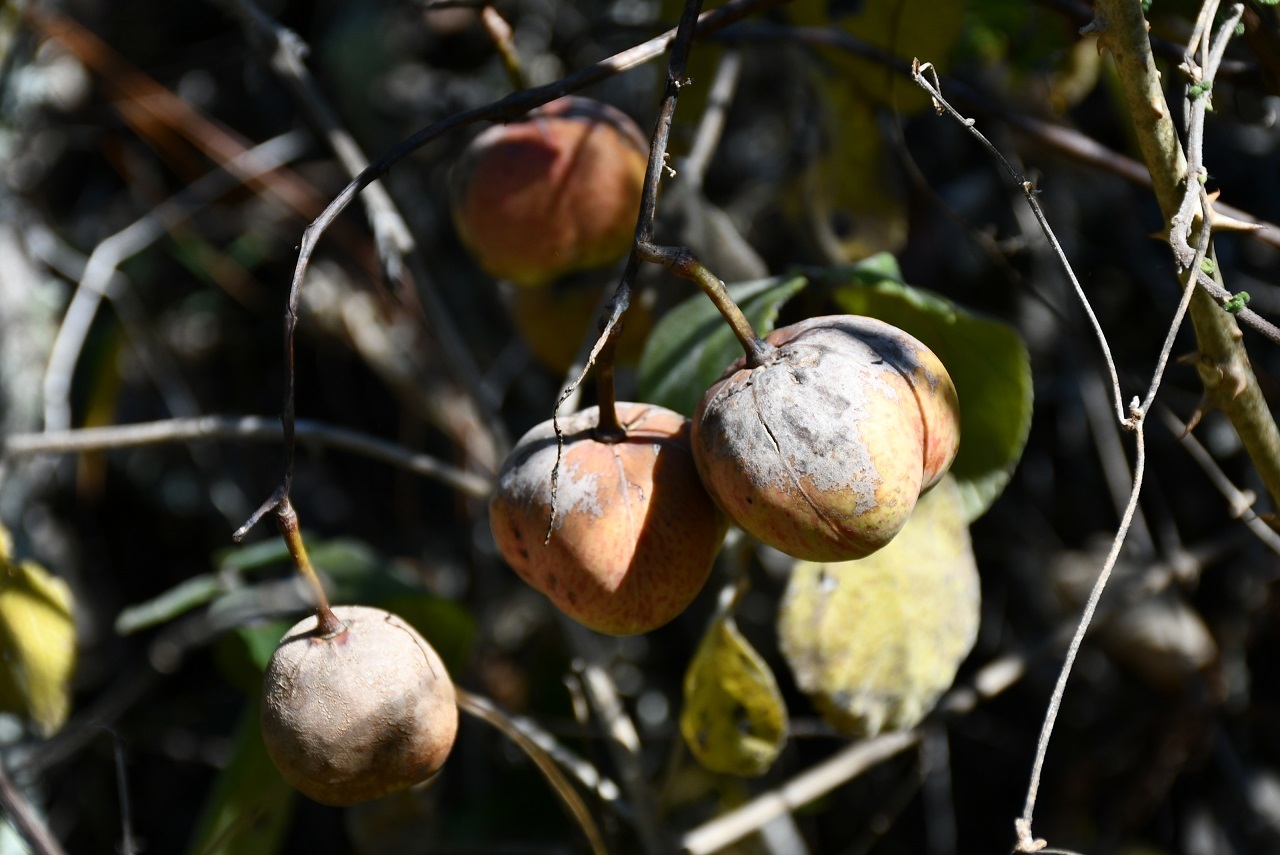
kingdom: Plantae
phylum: Tracheophyta
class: Magnoliopsida
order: Malpighiales
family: Phyllanthaceae
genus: Phyllanthus
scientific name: Phyllanthus grandifolius
